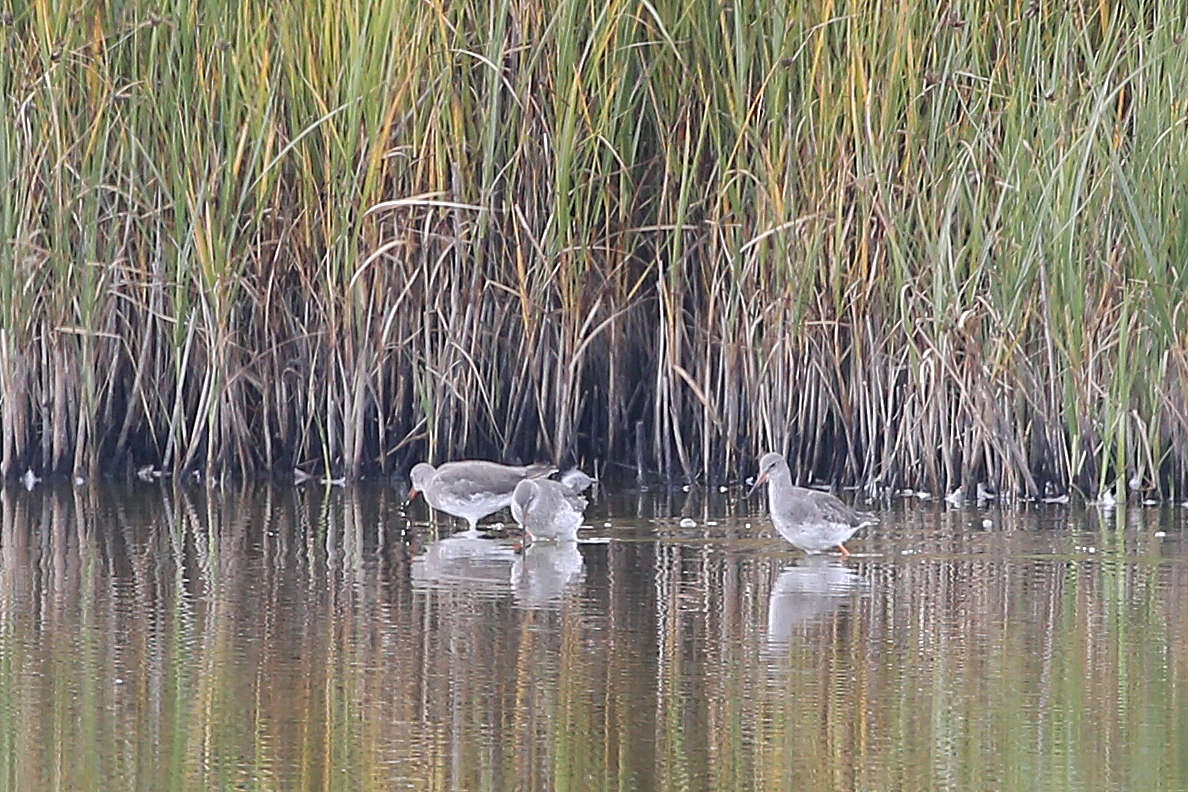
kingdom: Animalia
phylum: Chordata
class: Aves
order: Charadriiformes
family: Scolopacidae
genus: Tringa
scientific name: Tringa totanus
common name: Common redshank
